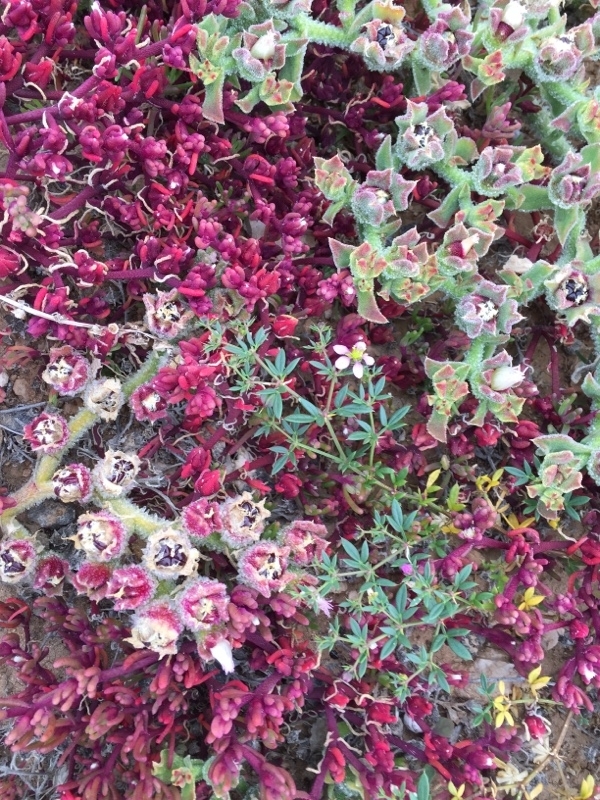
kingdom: Plantae
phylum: Tracheophyta
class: Magnoliopsida
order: Caryophyllales
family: Aizoaceae
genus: Mesembryanthemum
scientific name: Mesembryanthemum nodiflorum
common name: Slenderleaf iceplant
